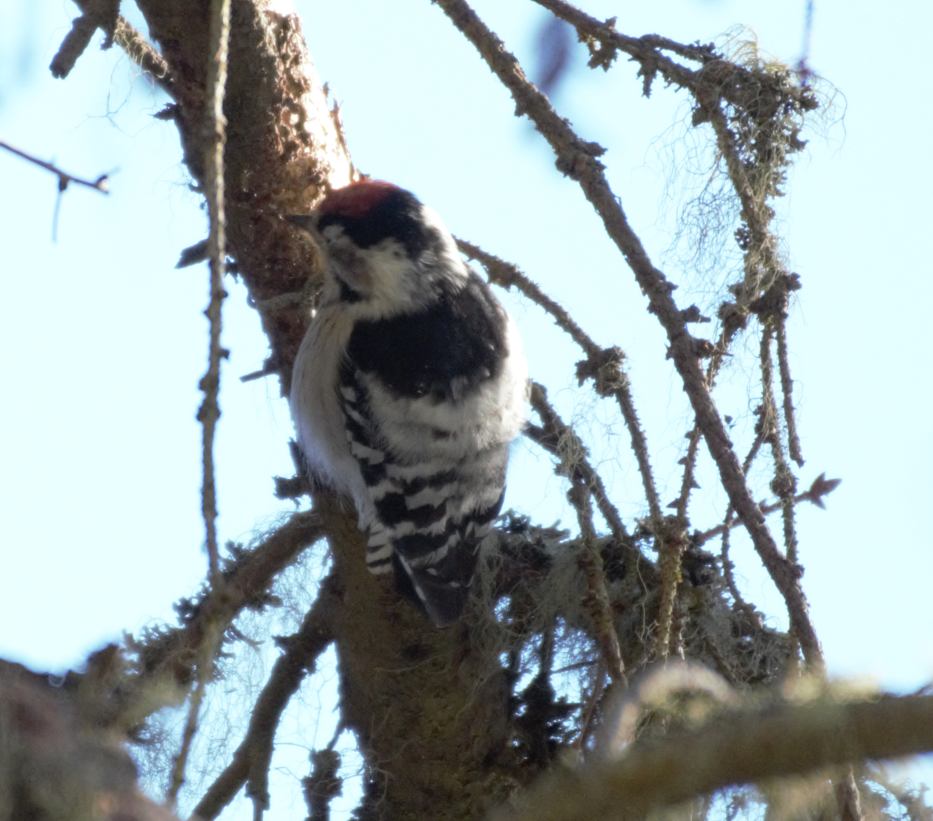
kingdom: Animalia
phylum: Chordata
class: Aves
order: Piciformes
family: Picidae
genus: Dryobates
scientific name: Dryobates minor
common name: Lesser spotted woodpecker
